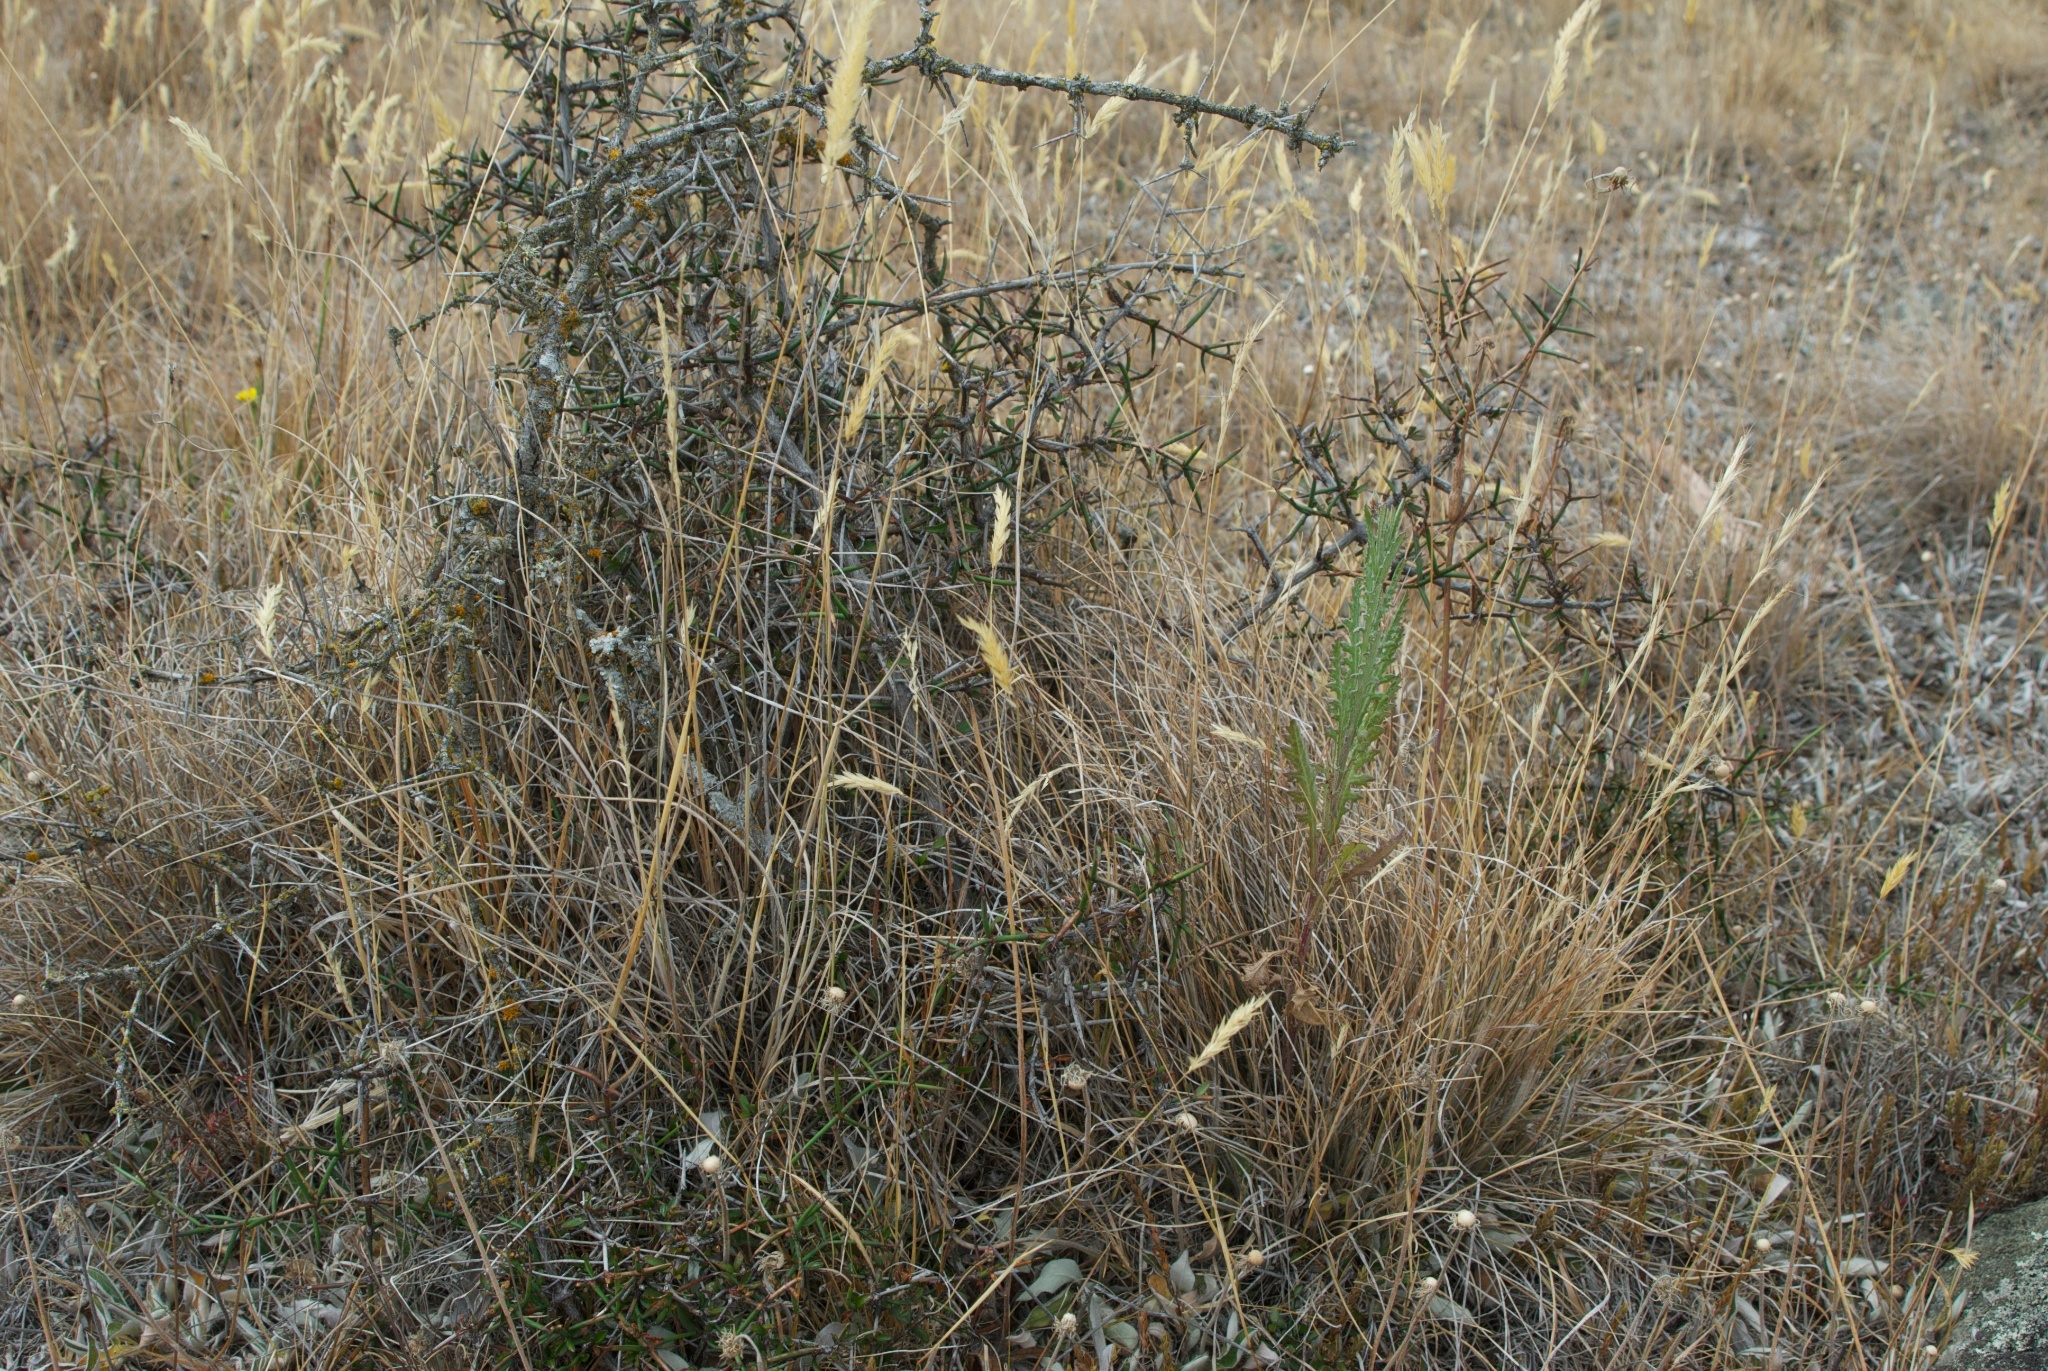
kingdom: Plantae
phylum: Tracheophyta
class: Magnoliopsida
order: Asterales
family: Asteraceae
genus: Senecio
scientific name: Senecio glomeratus
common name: Cutleaf burnweed
